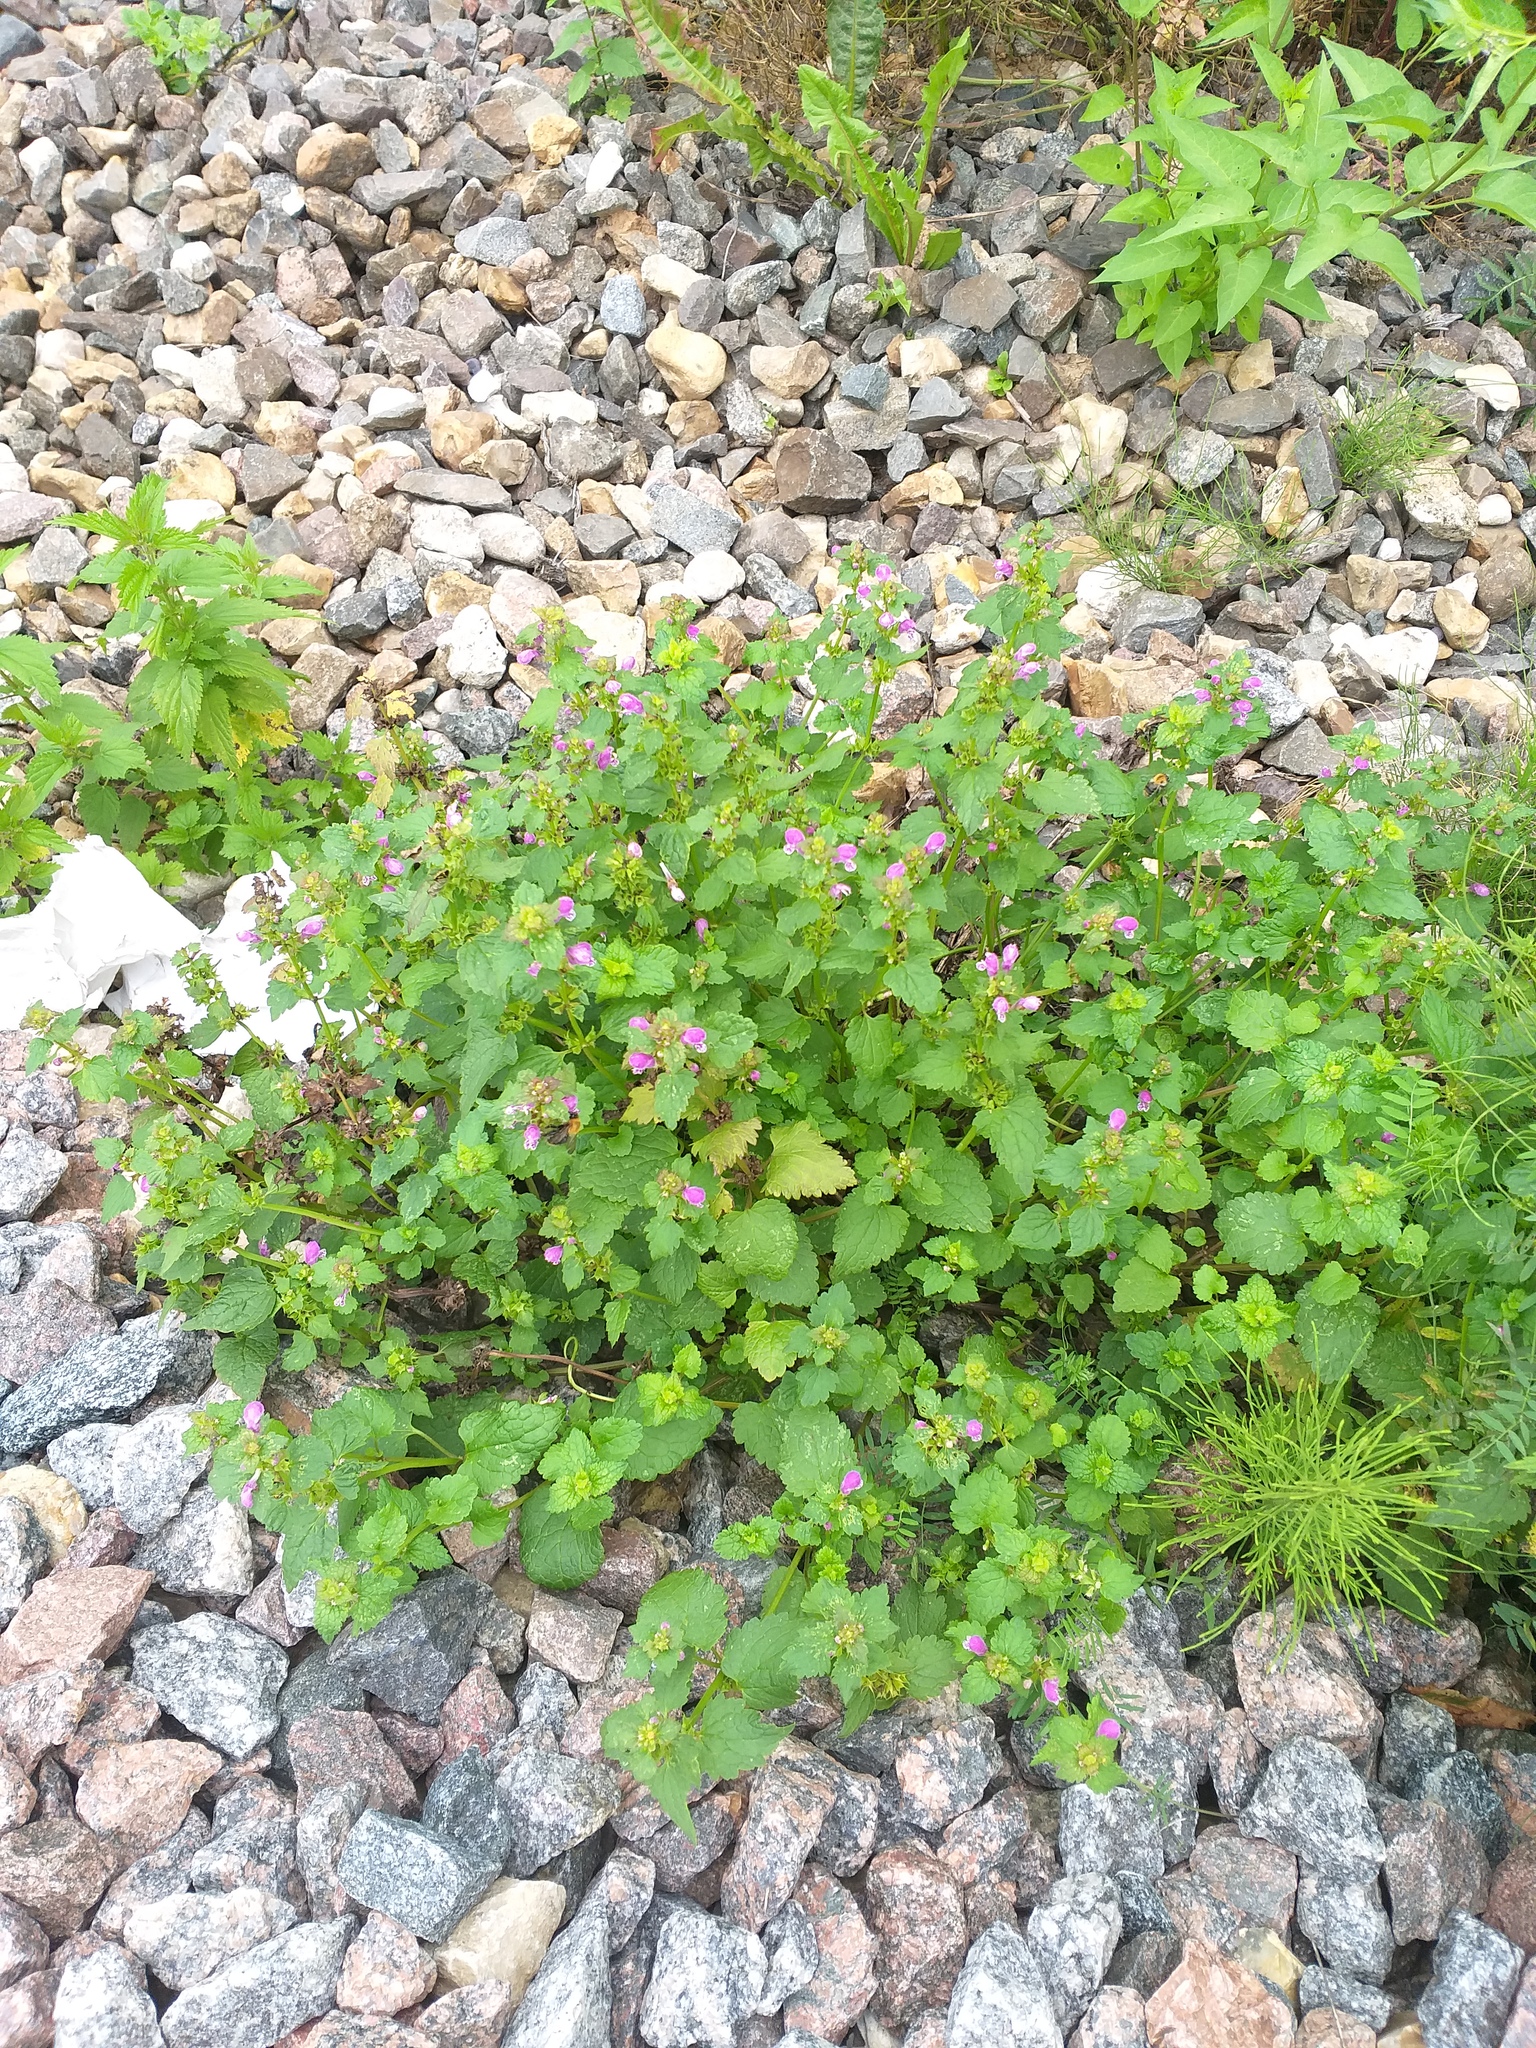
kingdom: Plantae
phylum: Tracheophyta
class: Magnoliopsida
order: Lamiales
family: Lamiaceae
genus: Lamium
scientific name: Lamium maculatum
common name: Spotted dead-nettle
